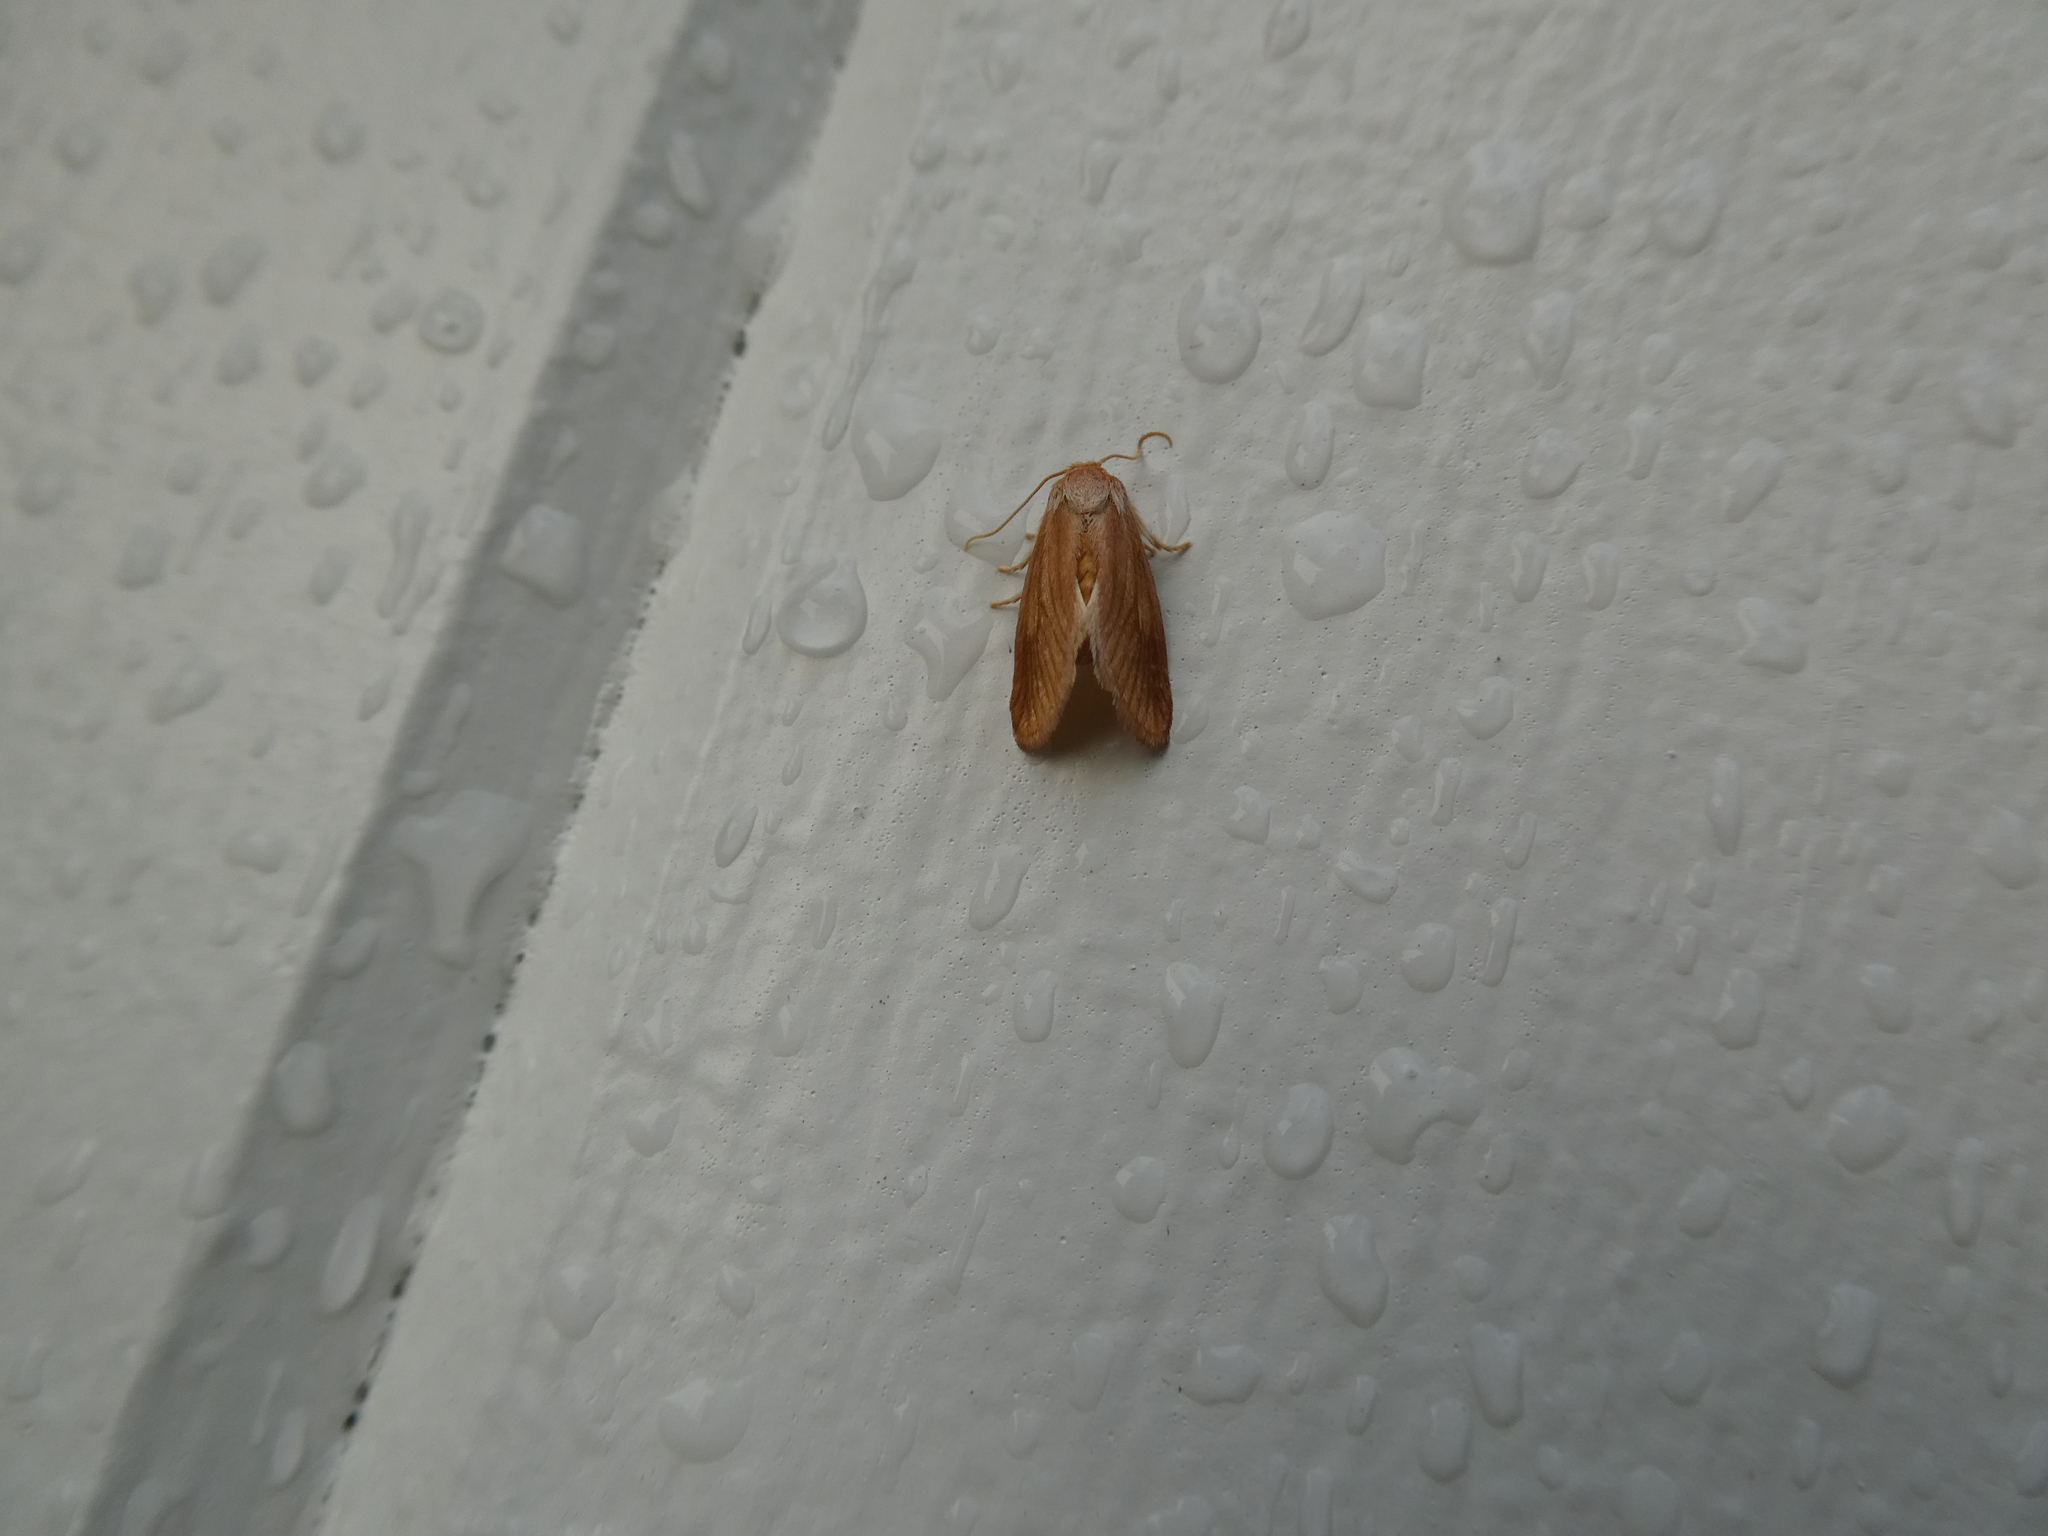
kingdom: Animalia
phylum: Arthropoda
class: Insecta
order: Lepidoptera
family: Limacodidae
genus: Tortricidia
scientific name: Tortricidia testacea
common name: Early button slug moth
